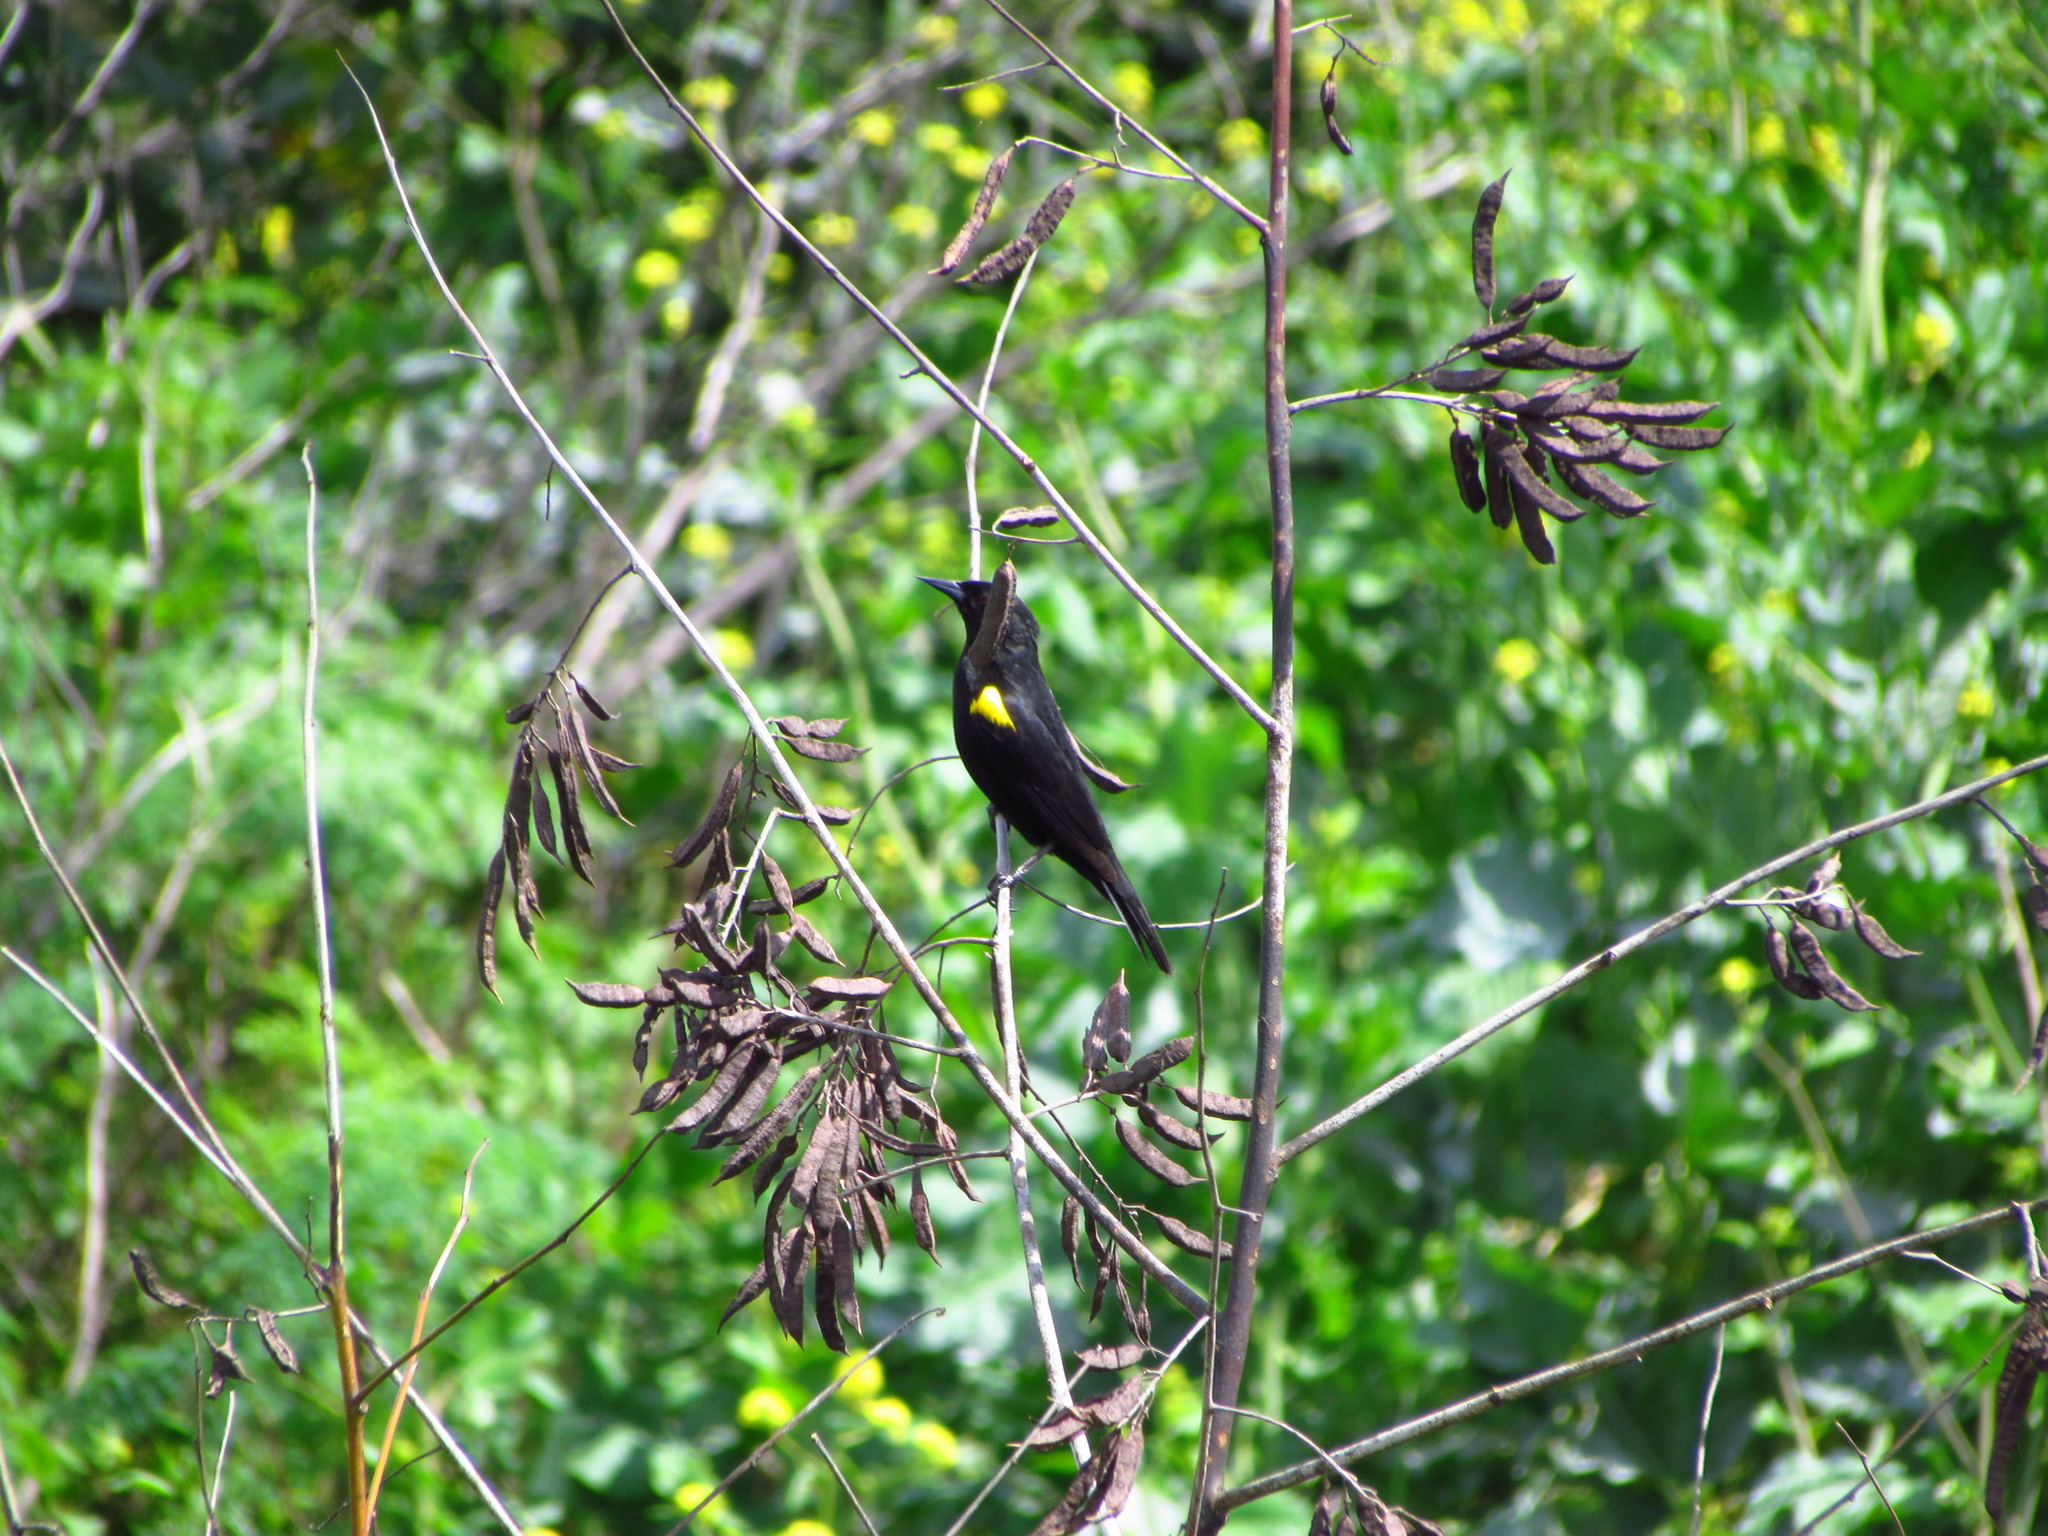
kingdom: Animalia
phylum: Chordata
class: Aves
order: Passeriformes
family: Icteridae
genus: Agelasticus
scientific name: Agelasticus thilius
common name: Yellow-winged blackbird
